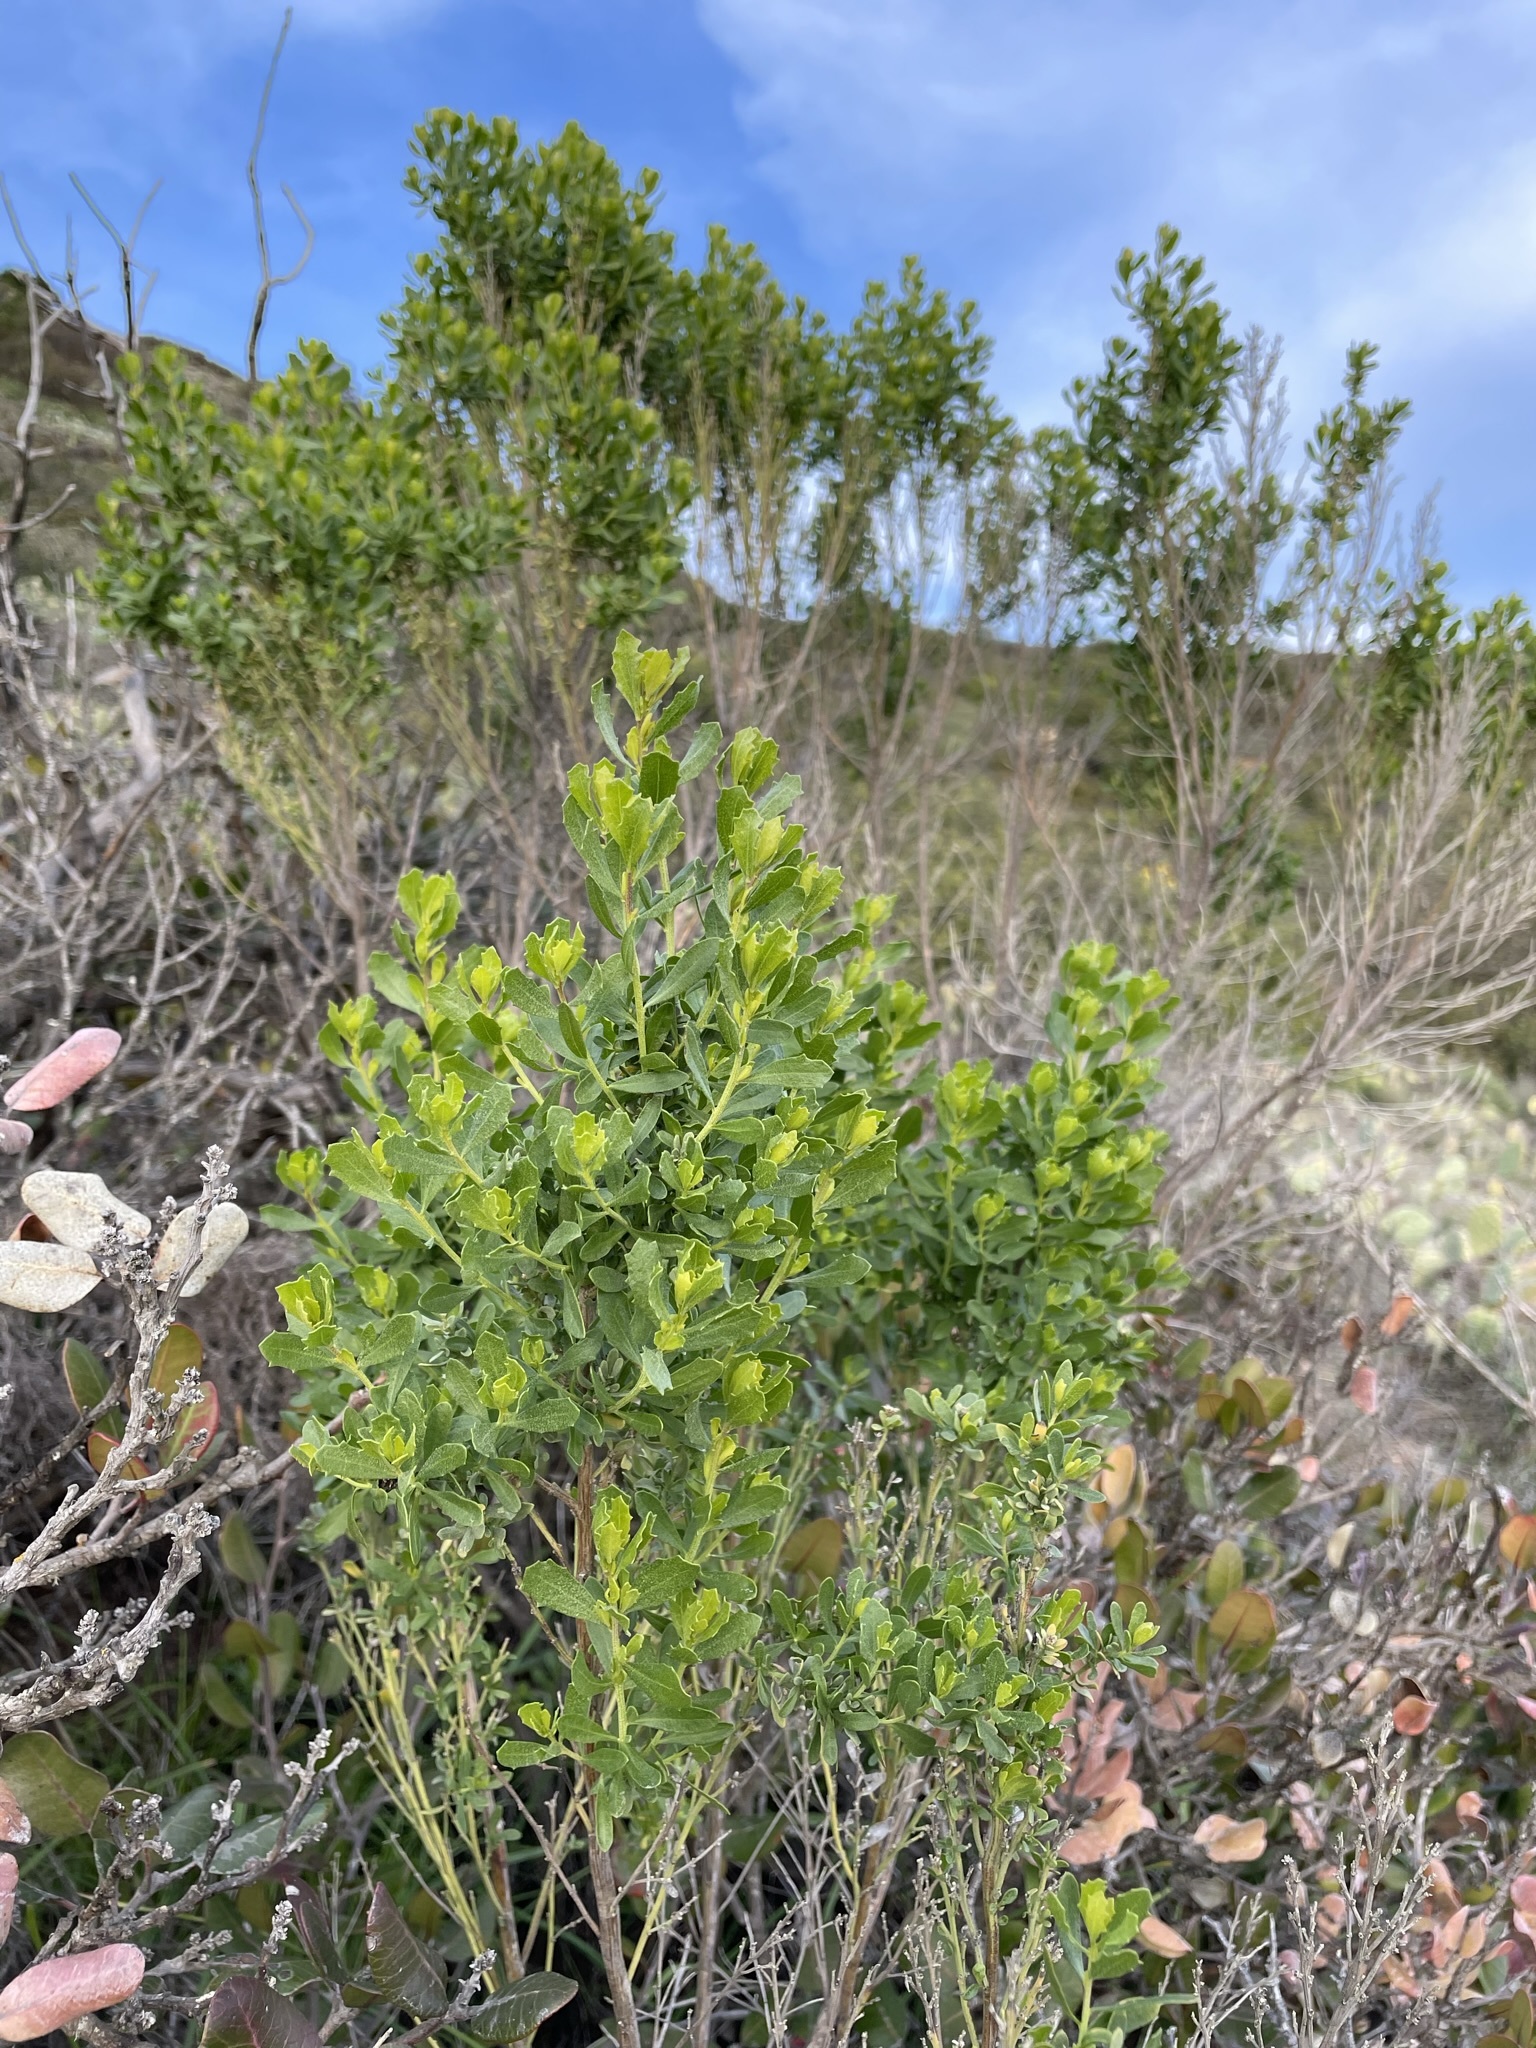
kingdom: Plantae
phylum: Tracheophyta
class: Magnoliopsida
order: Asterales
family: Asteraceae
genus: Baccharis
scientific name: Baccharis pilularis
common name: Coyotebrush
